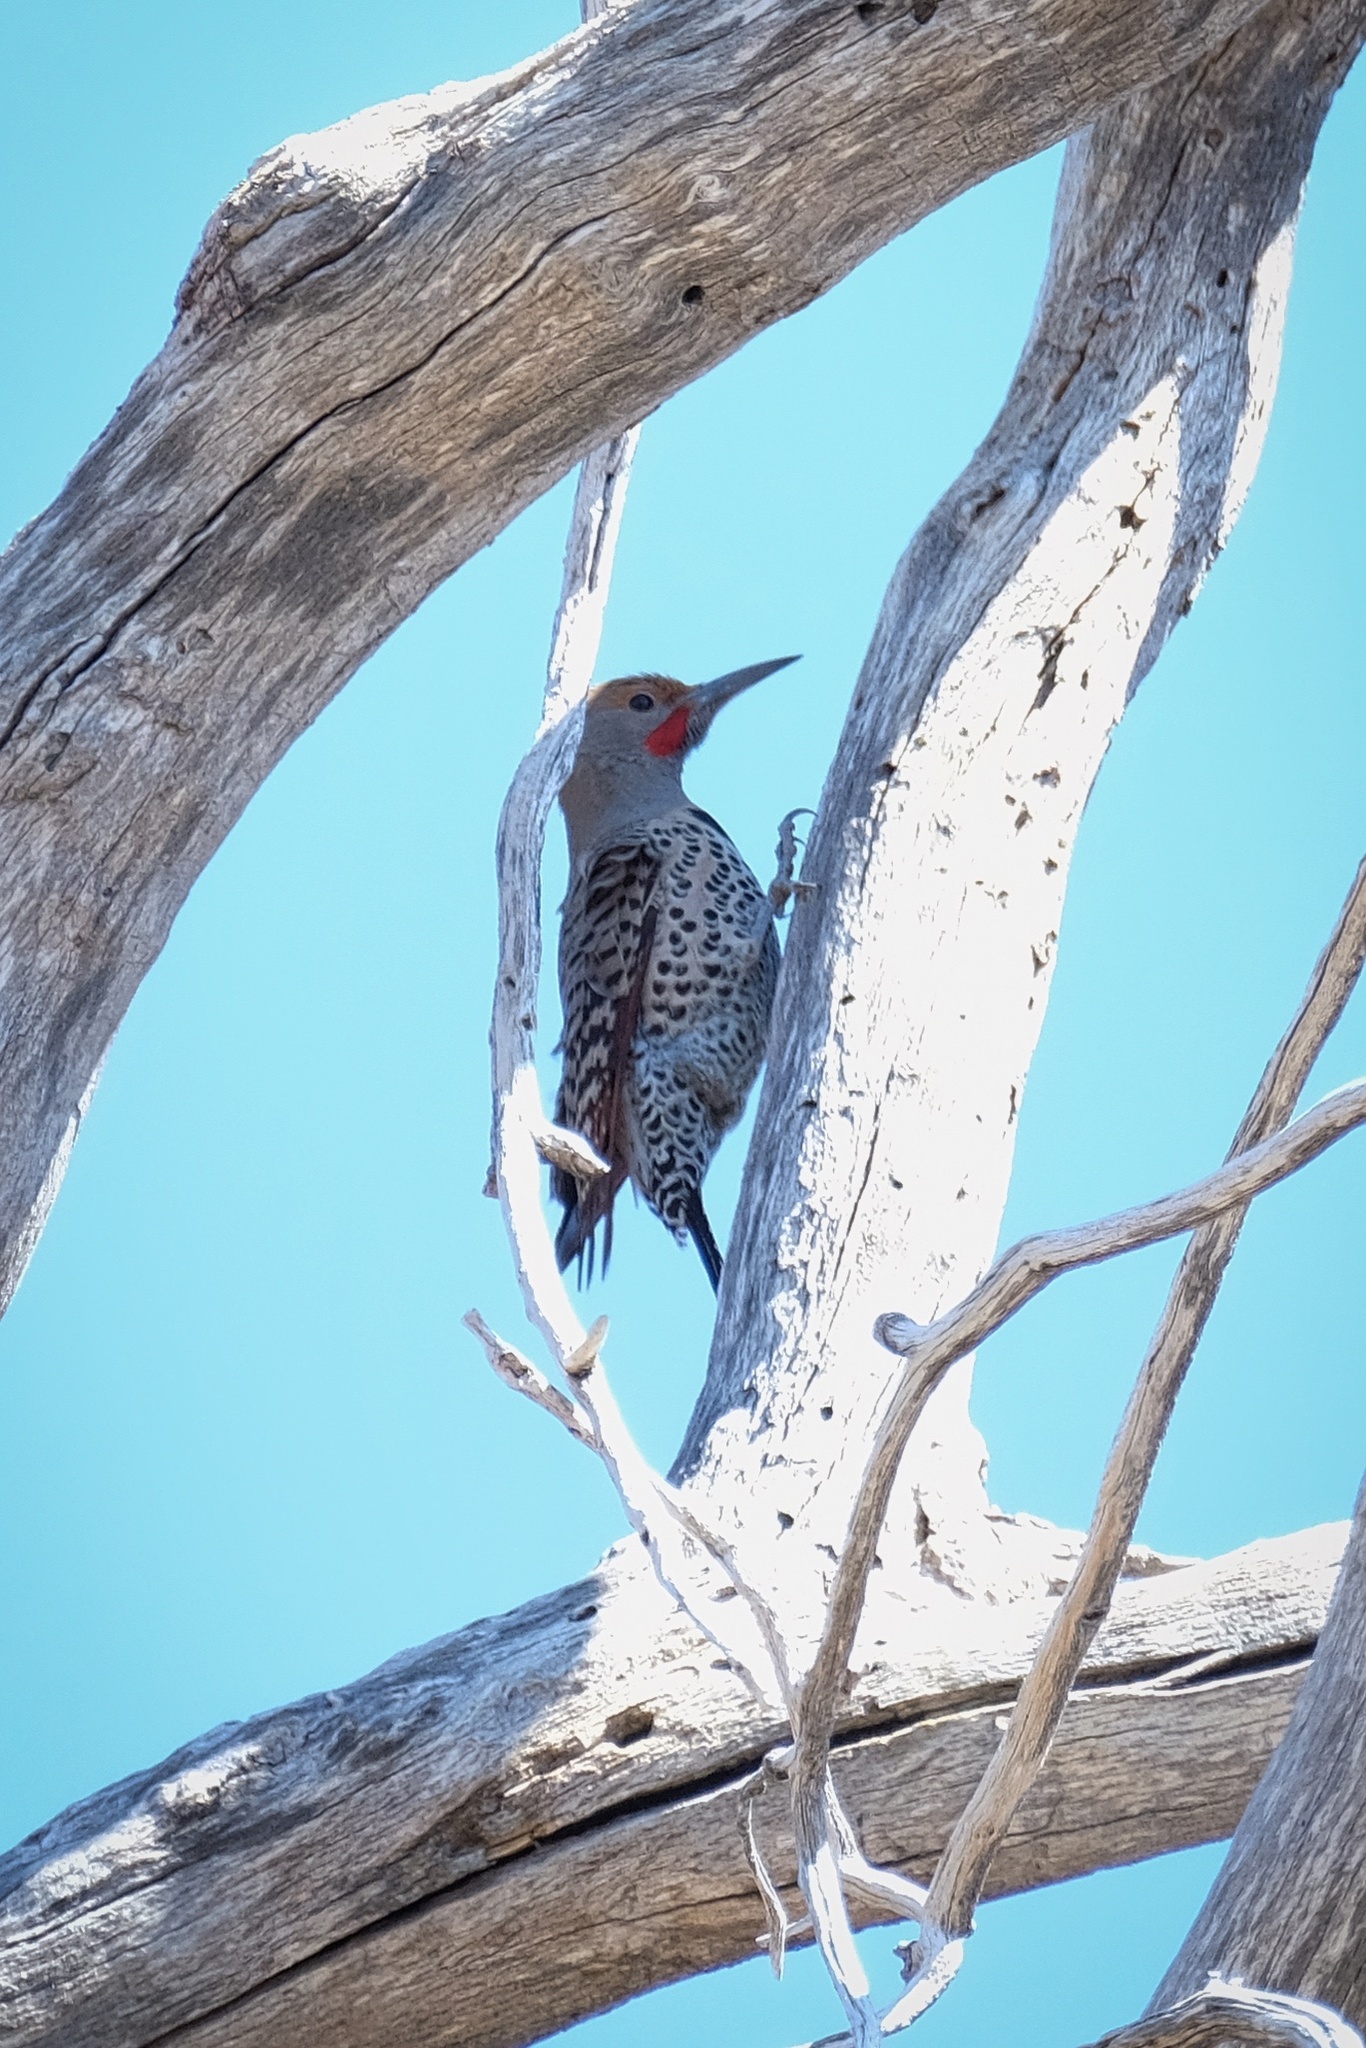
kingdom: Animalia
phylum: Chordata
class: Aves
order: Piciformes
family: Picidae
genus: Colaptes
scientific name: Colaptes auratus
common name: Northern flicker
